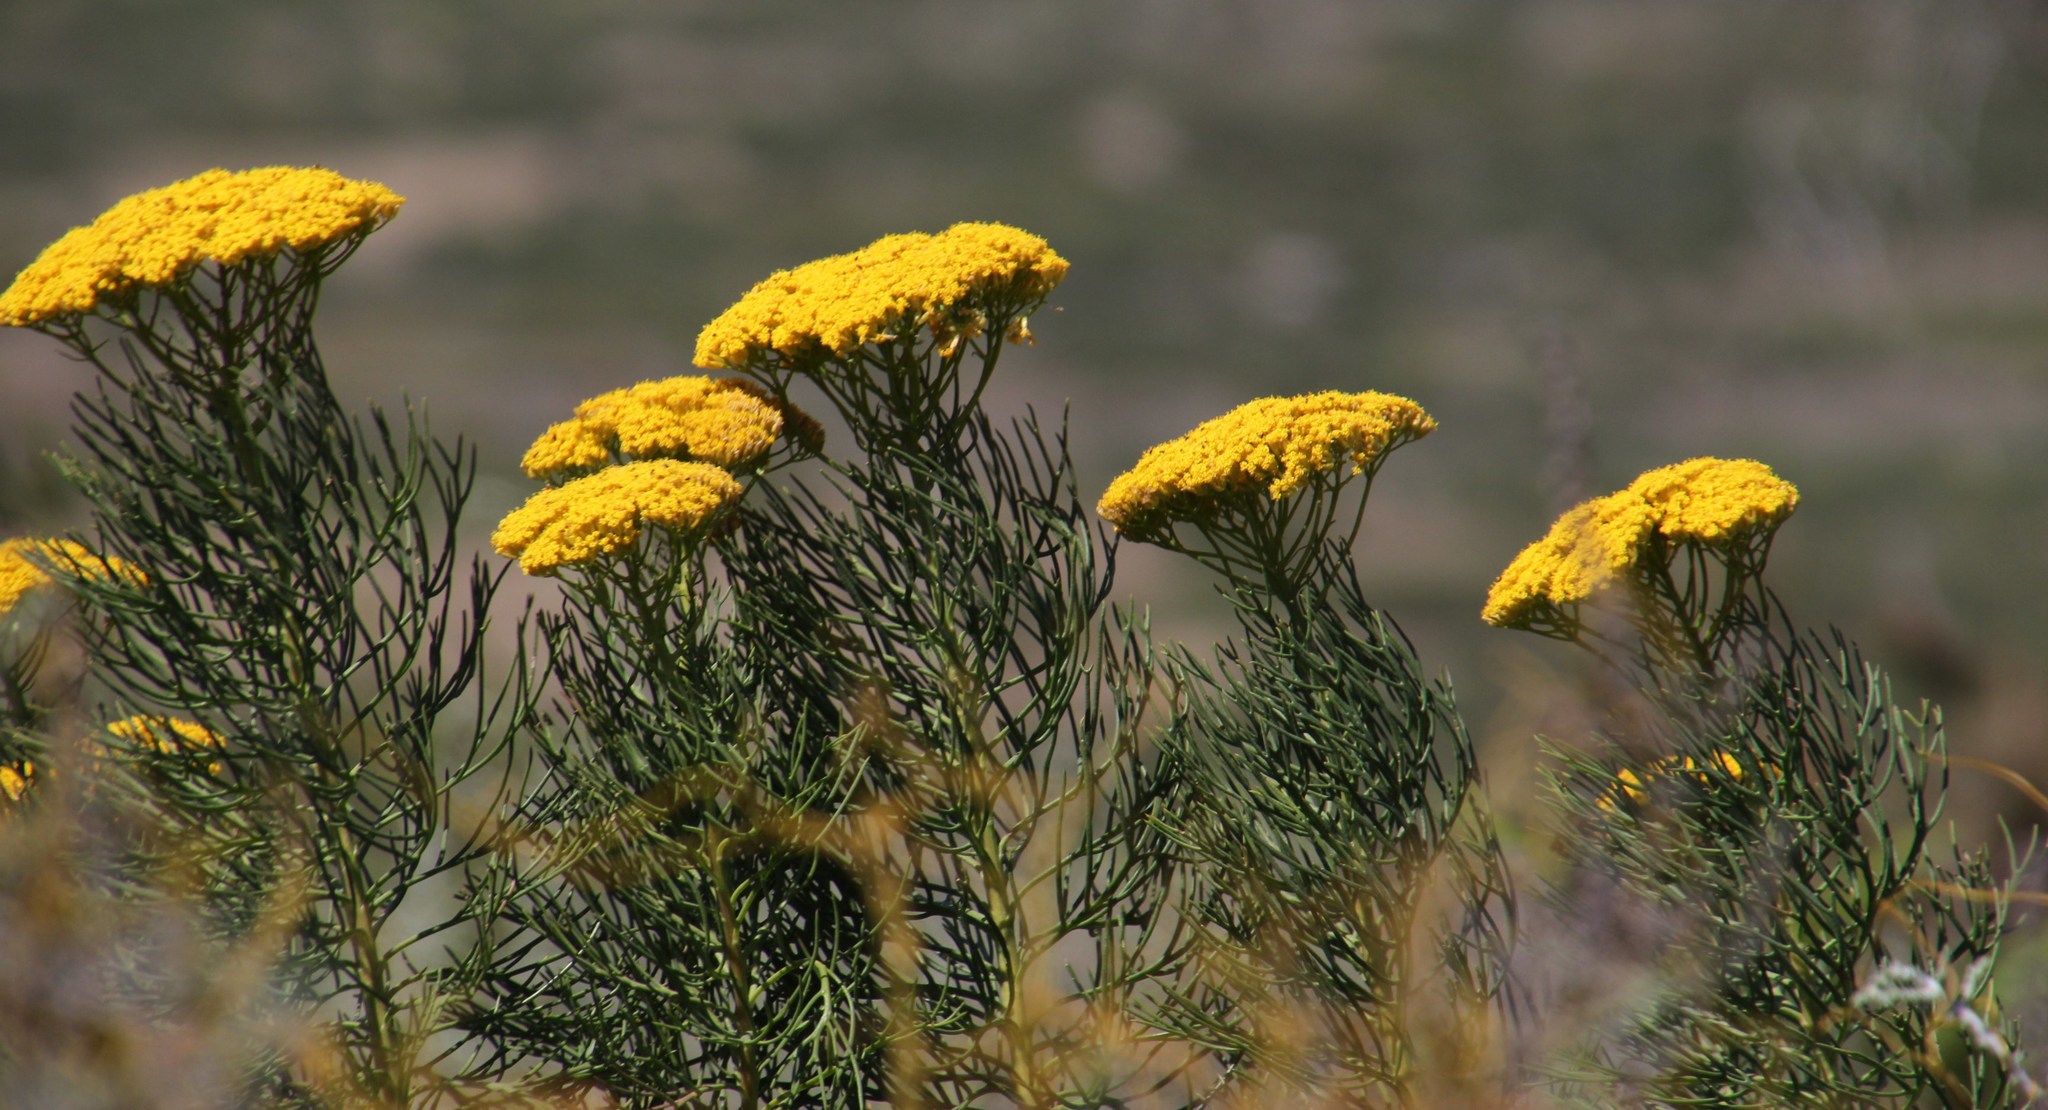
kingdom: Plantae
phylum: Tracheophyta
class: Magnoliopsida
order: Asterales
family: Asteraceae
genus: Hymenolepis
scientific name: Hymenolepis crithmifolia
